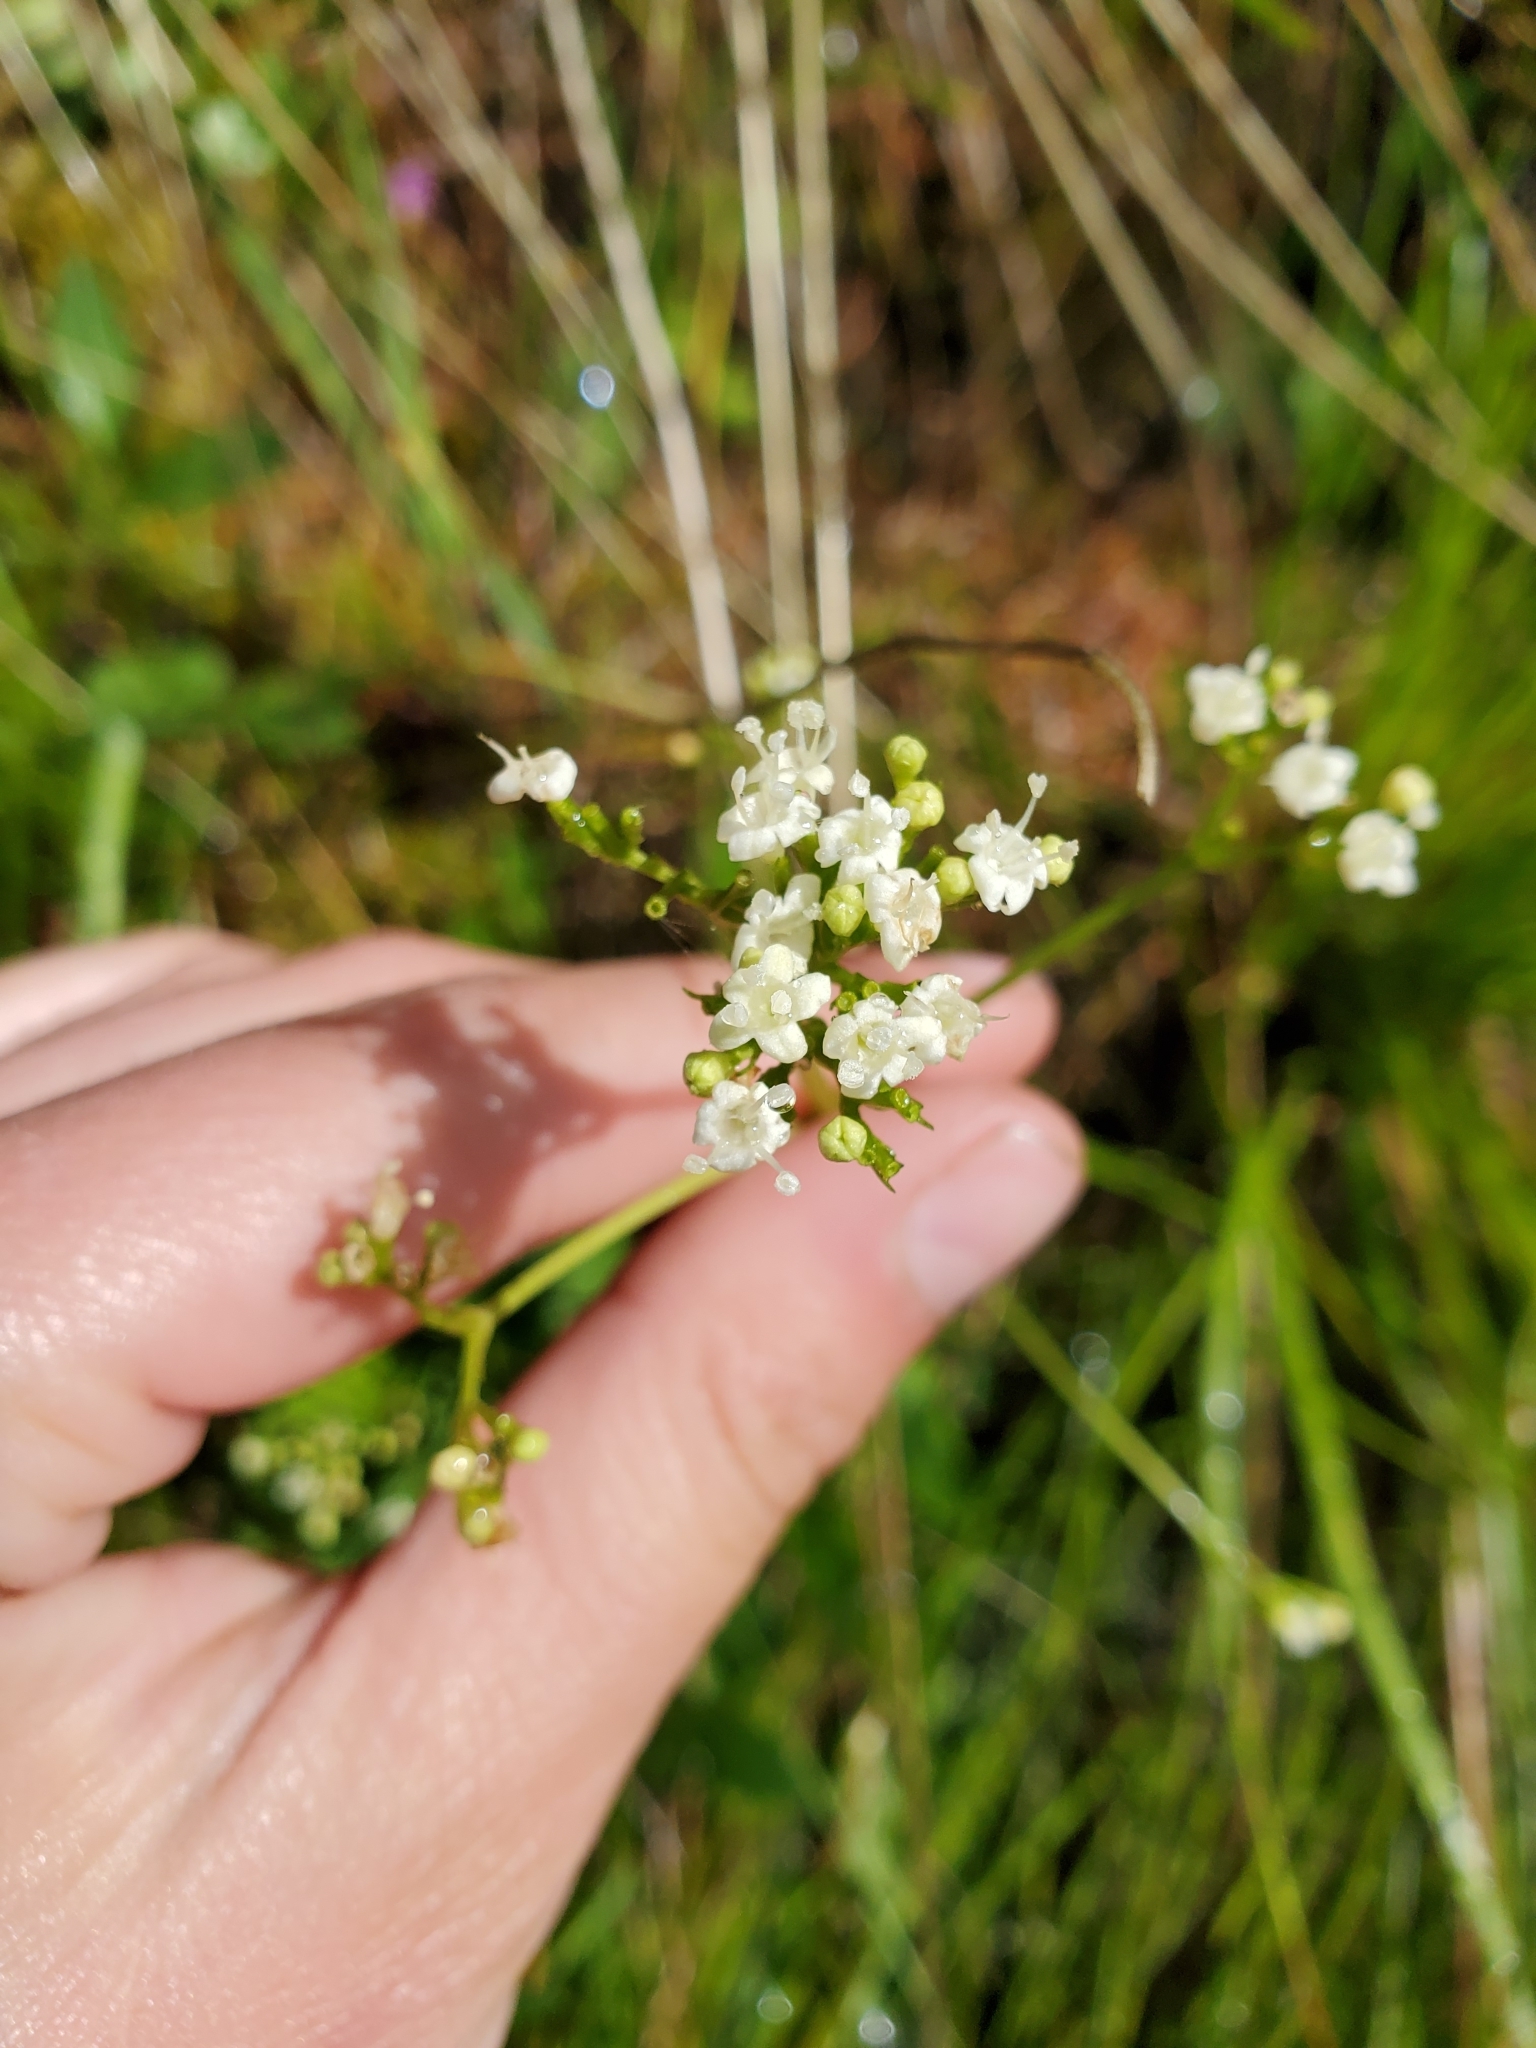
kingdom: Plantae
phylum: Tracheophyta
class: Magnoliopsida
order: Dipsacales
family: Caprifoliaceae
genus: Valeriana
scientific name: Valeriana occidentalis
